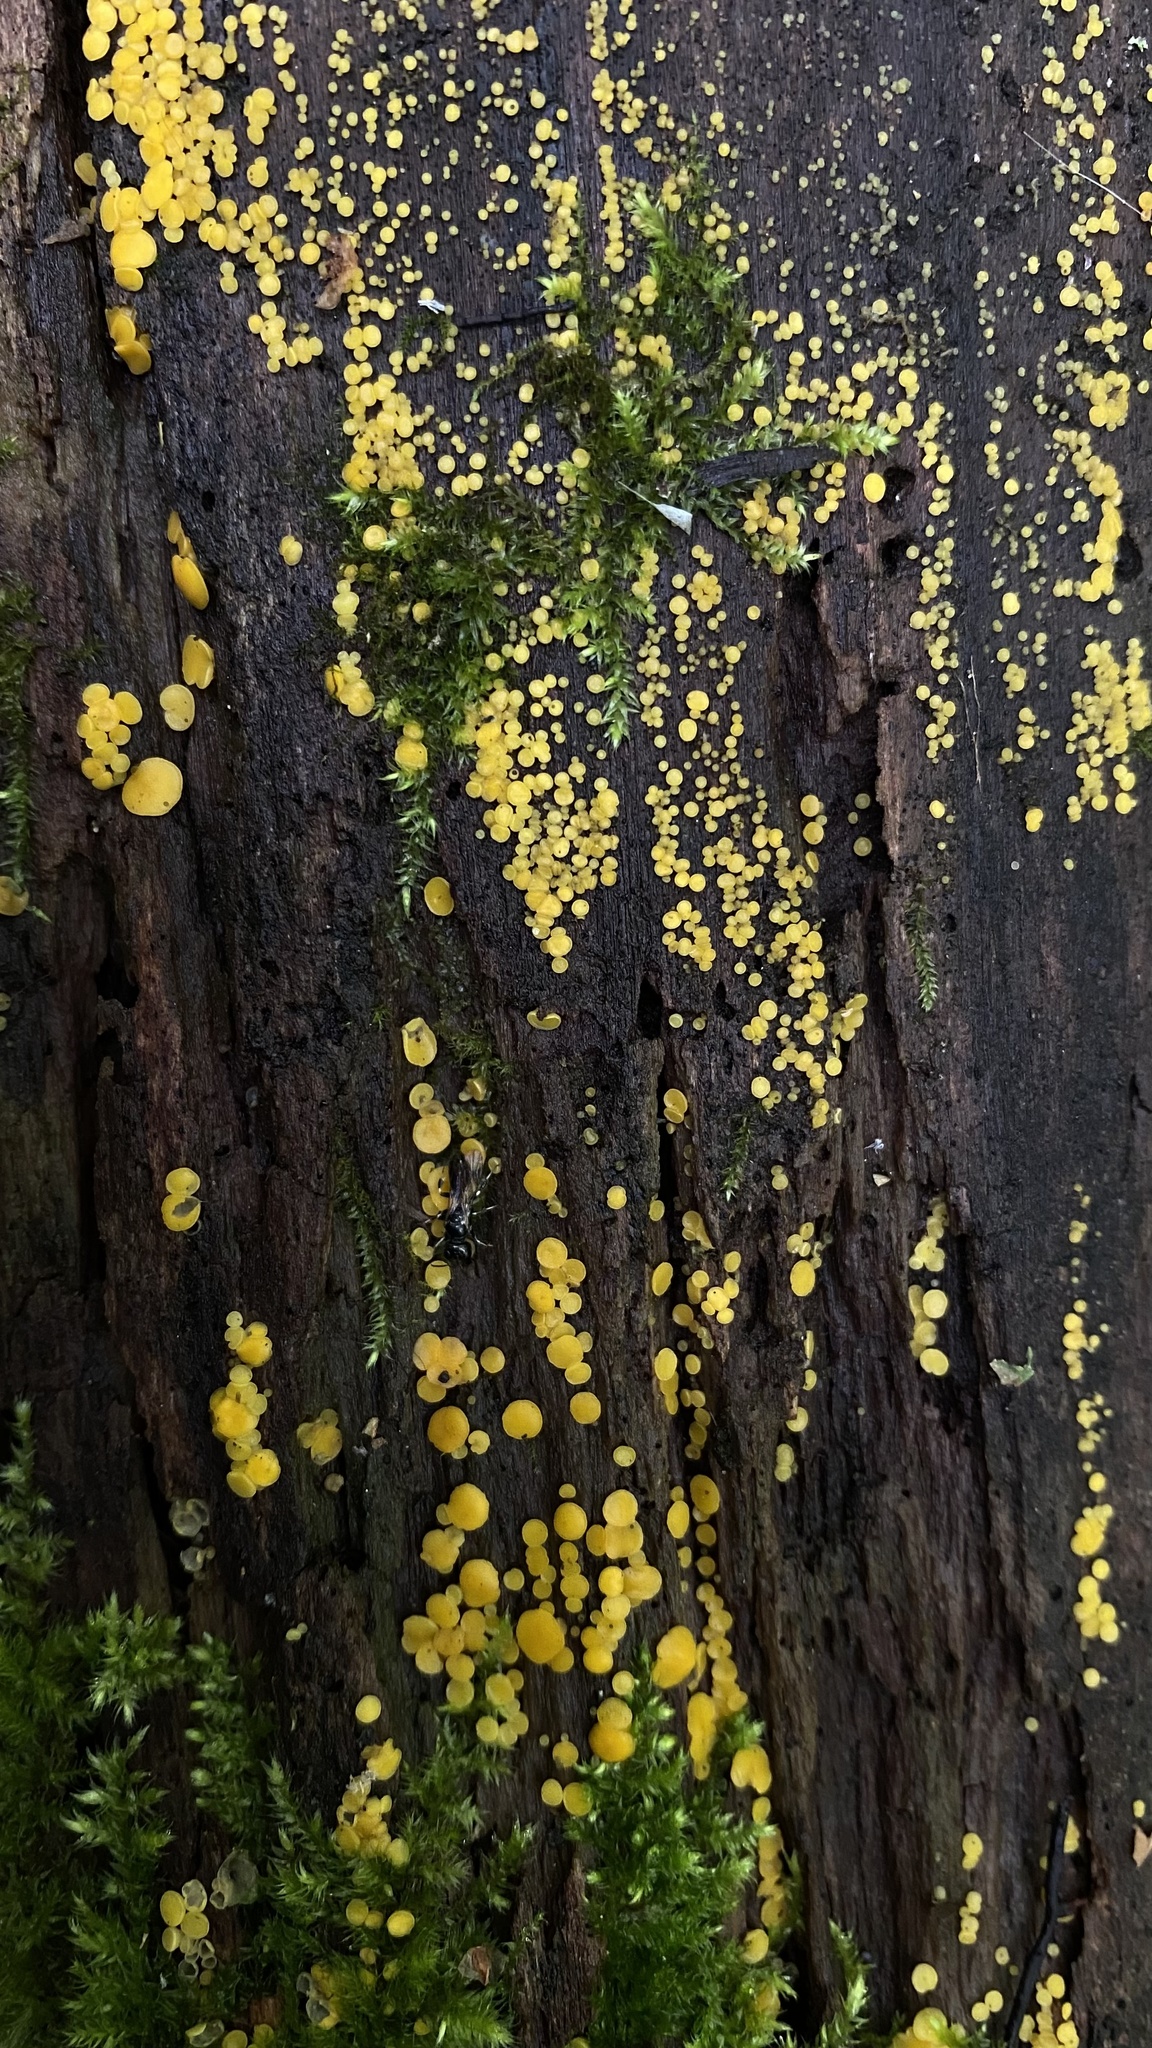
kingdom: Fungi
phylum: Ascomycota
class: Leotiomycetes
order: Helotiales
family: Pezizellaceae
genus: Calycina
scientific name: Calycina citrina
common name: Yellow fairy cups
